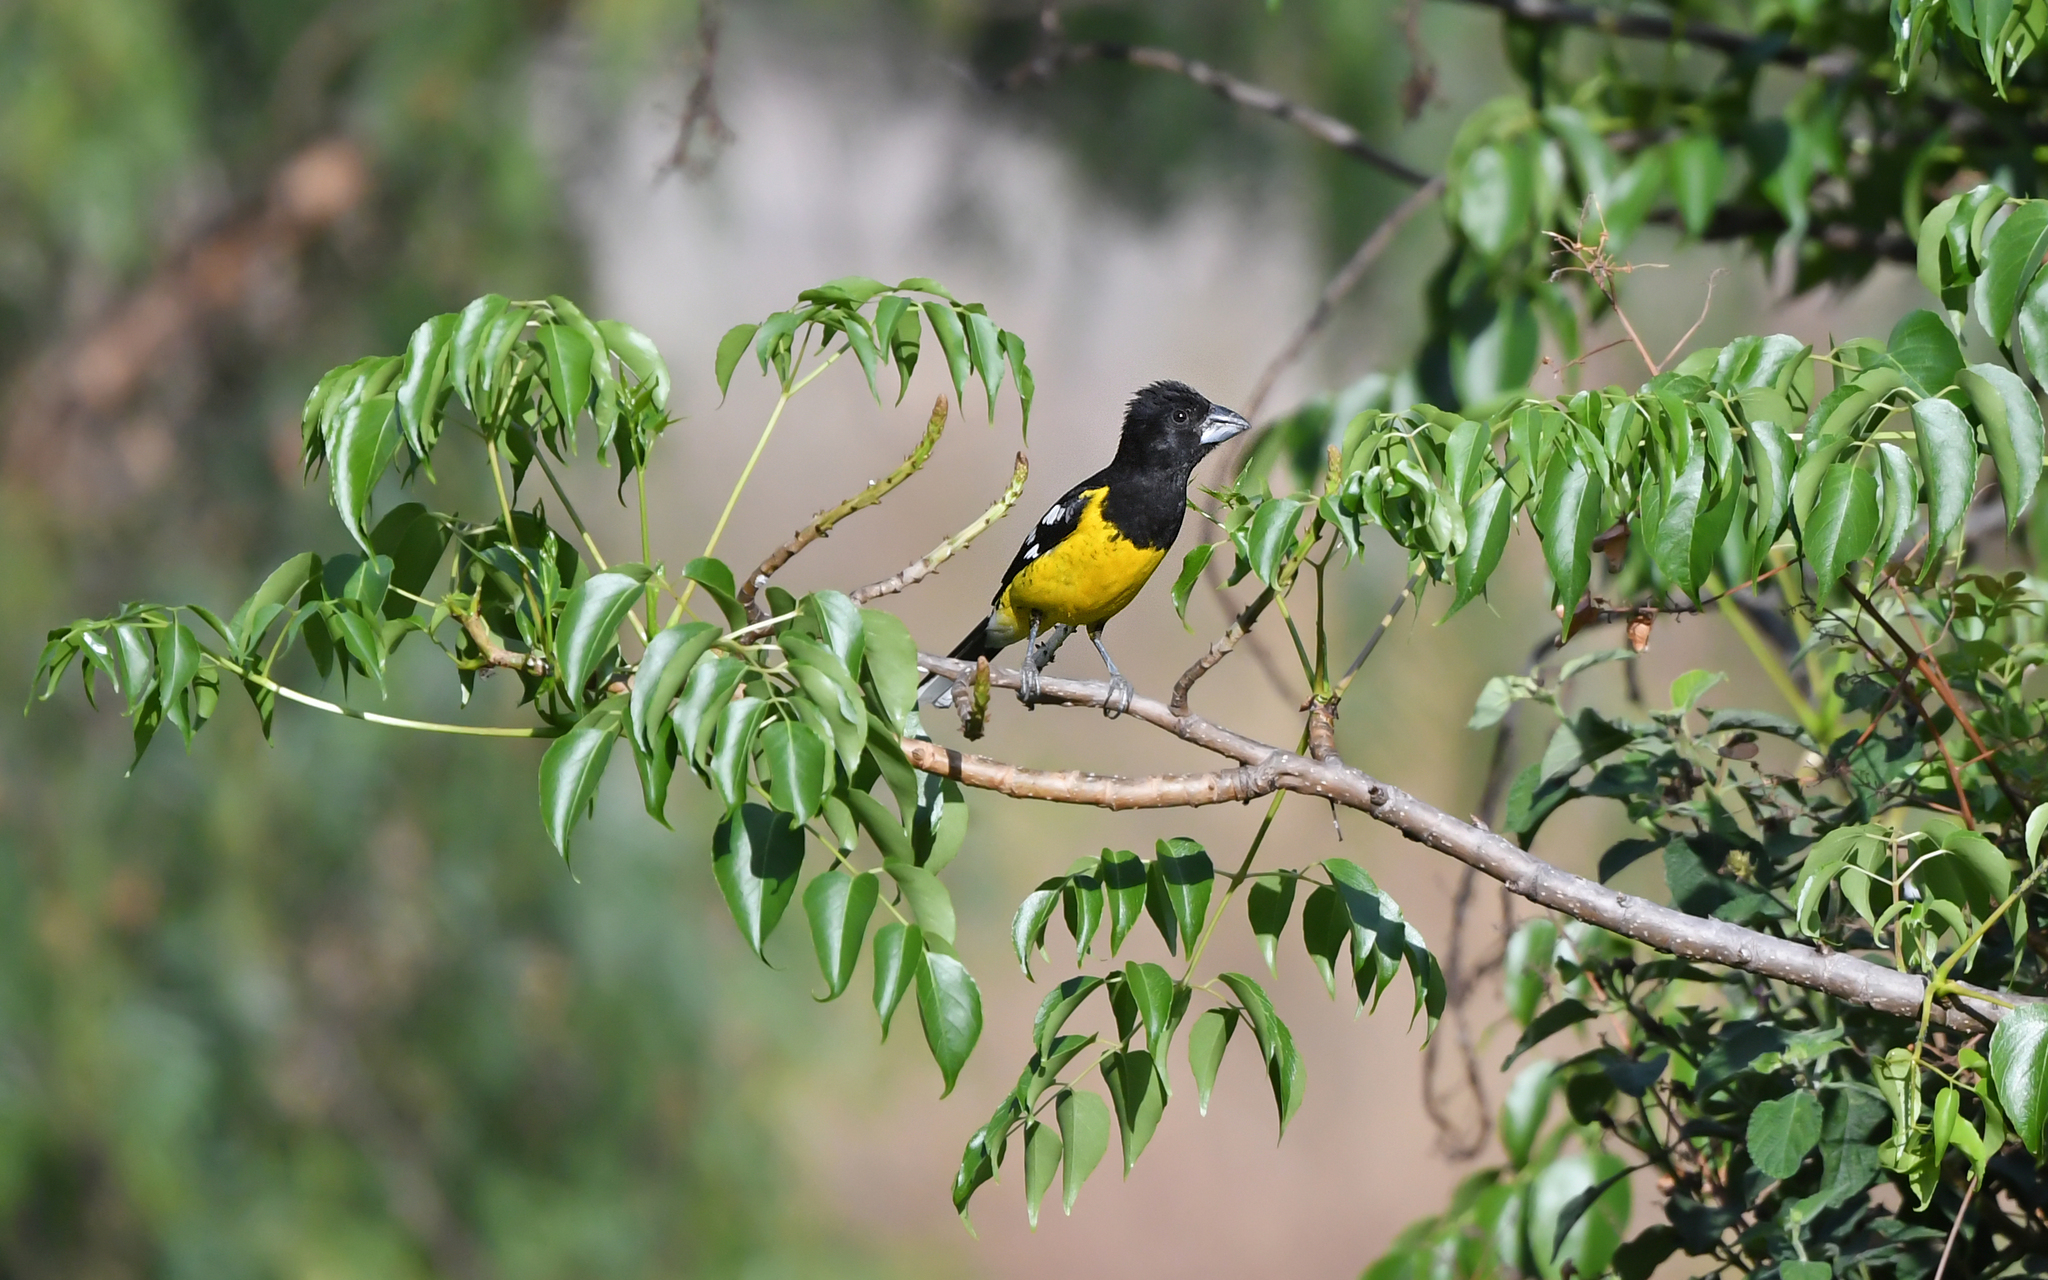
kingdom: Animalia
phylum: Chordata
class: Aves
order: Passeriformes
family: Cardinalidae
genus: Pheucticus
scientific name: Pheucticus aureoventris
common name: Black-backed grosbeak
